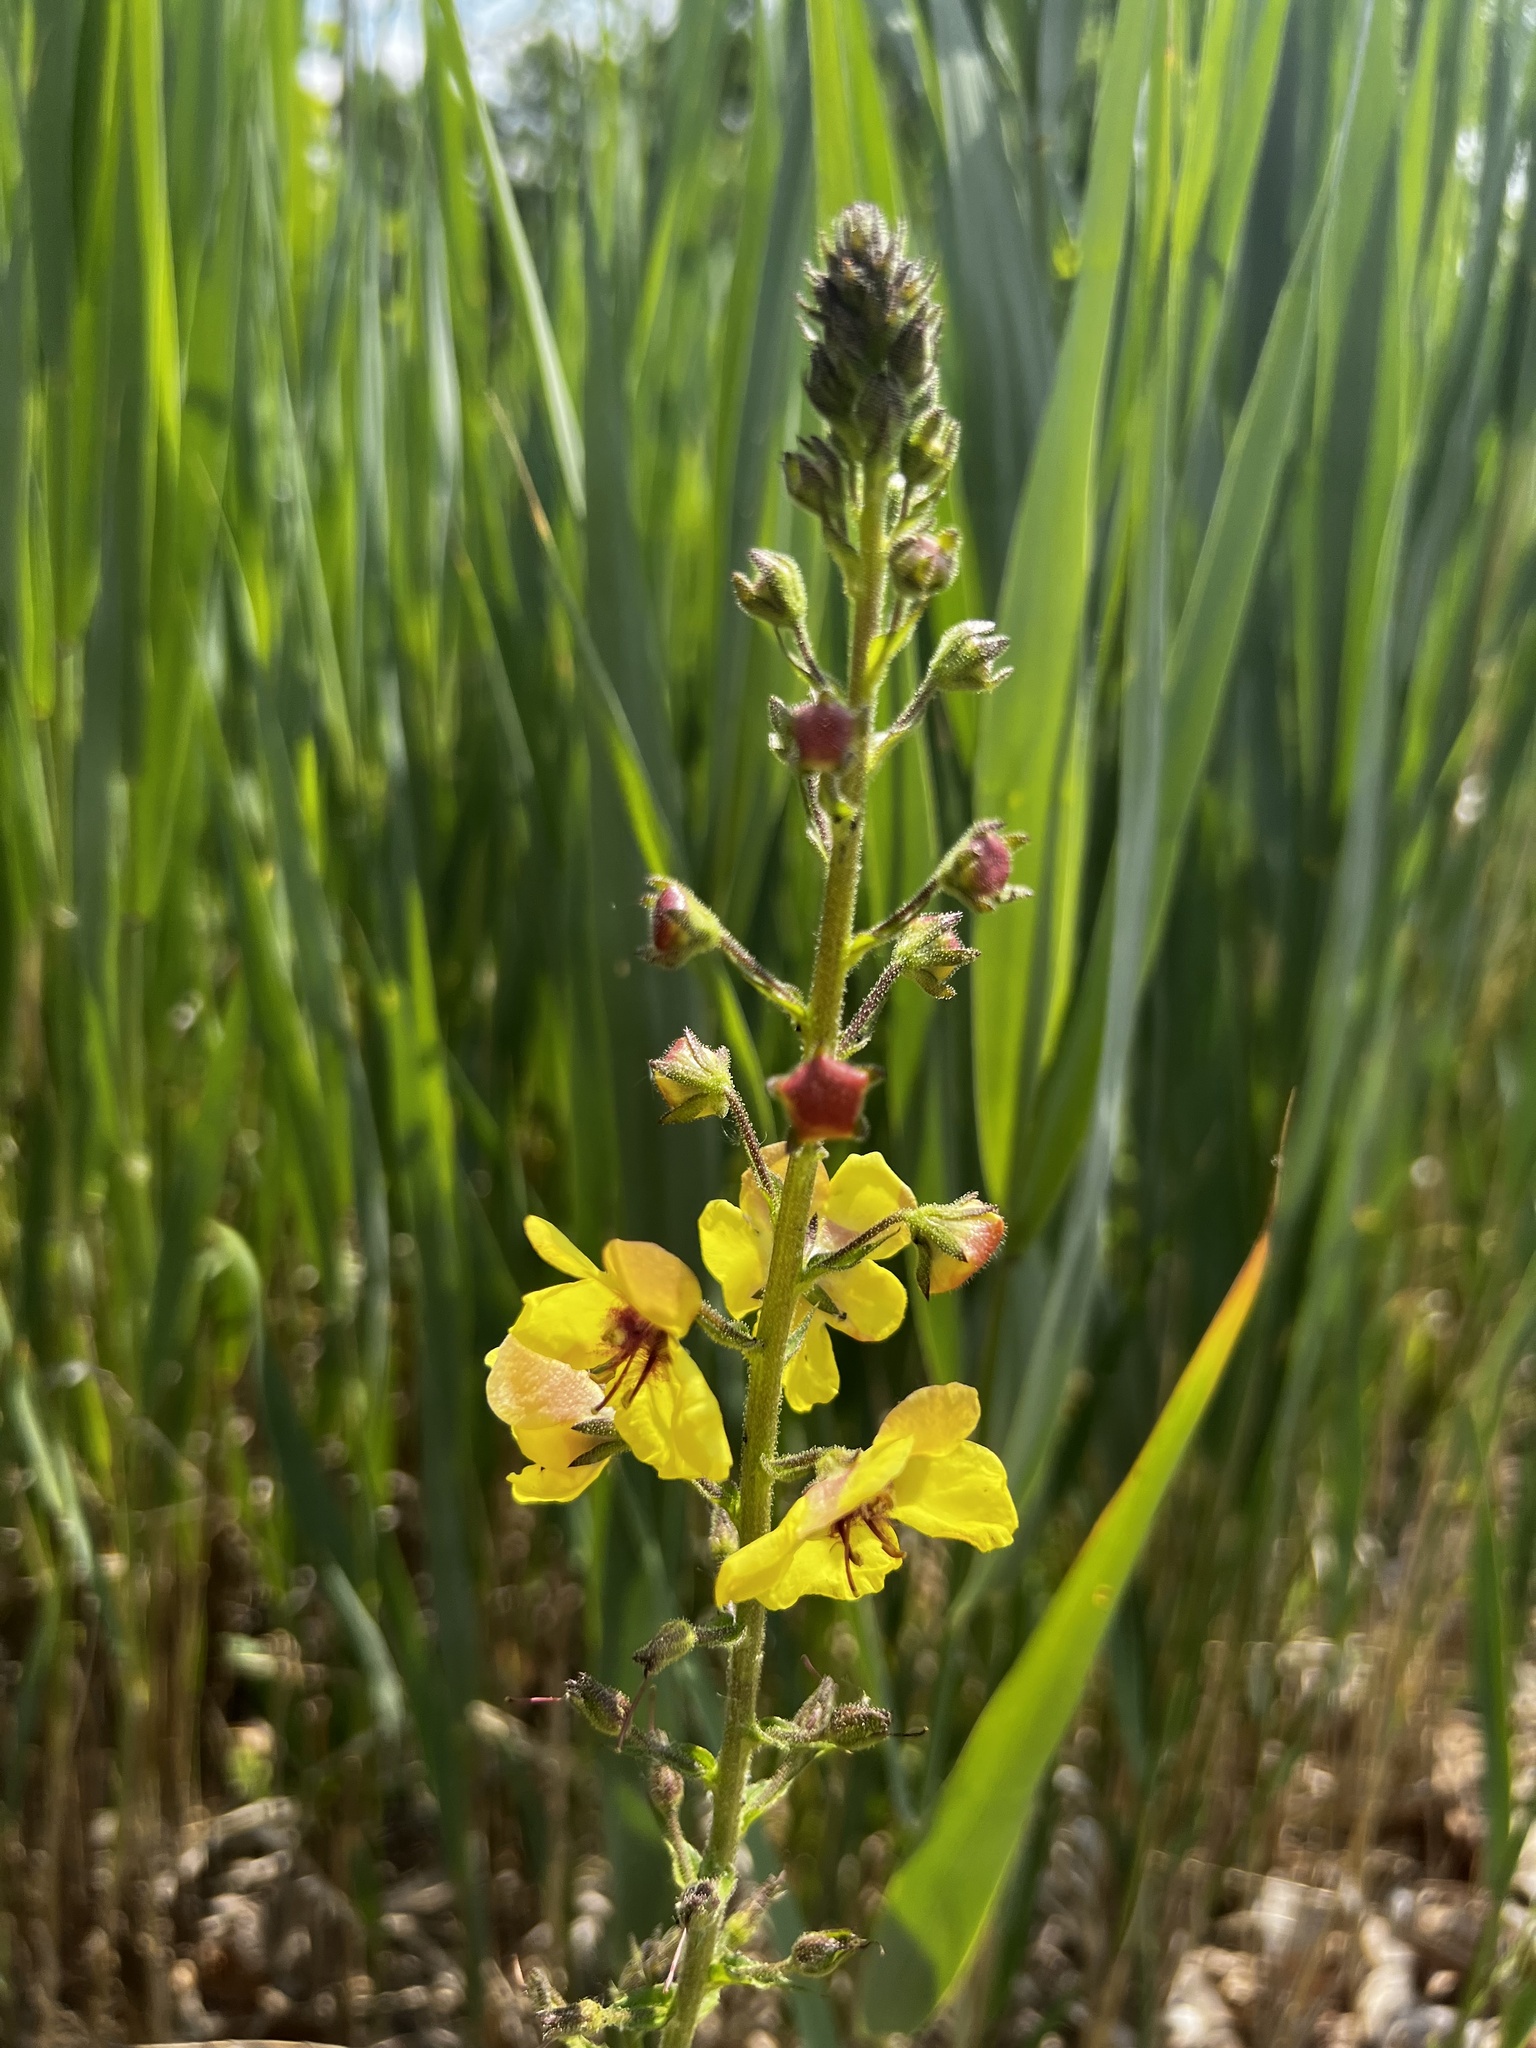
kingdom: Plantae
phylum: Tracheophyta
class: Magnoliopsida
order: Lamiales
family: Scrophulariaceae
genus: Verbascum
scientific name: Verbascum blattaria
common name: Moth mullein
